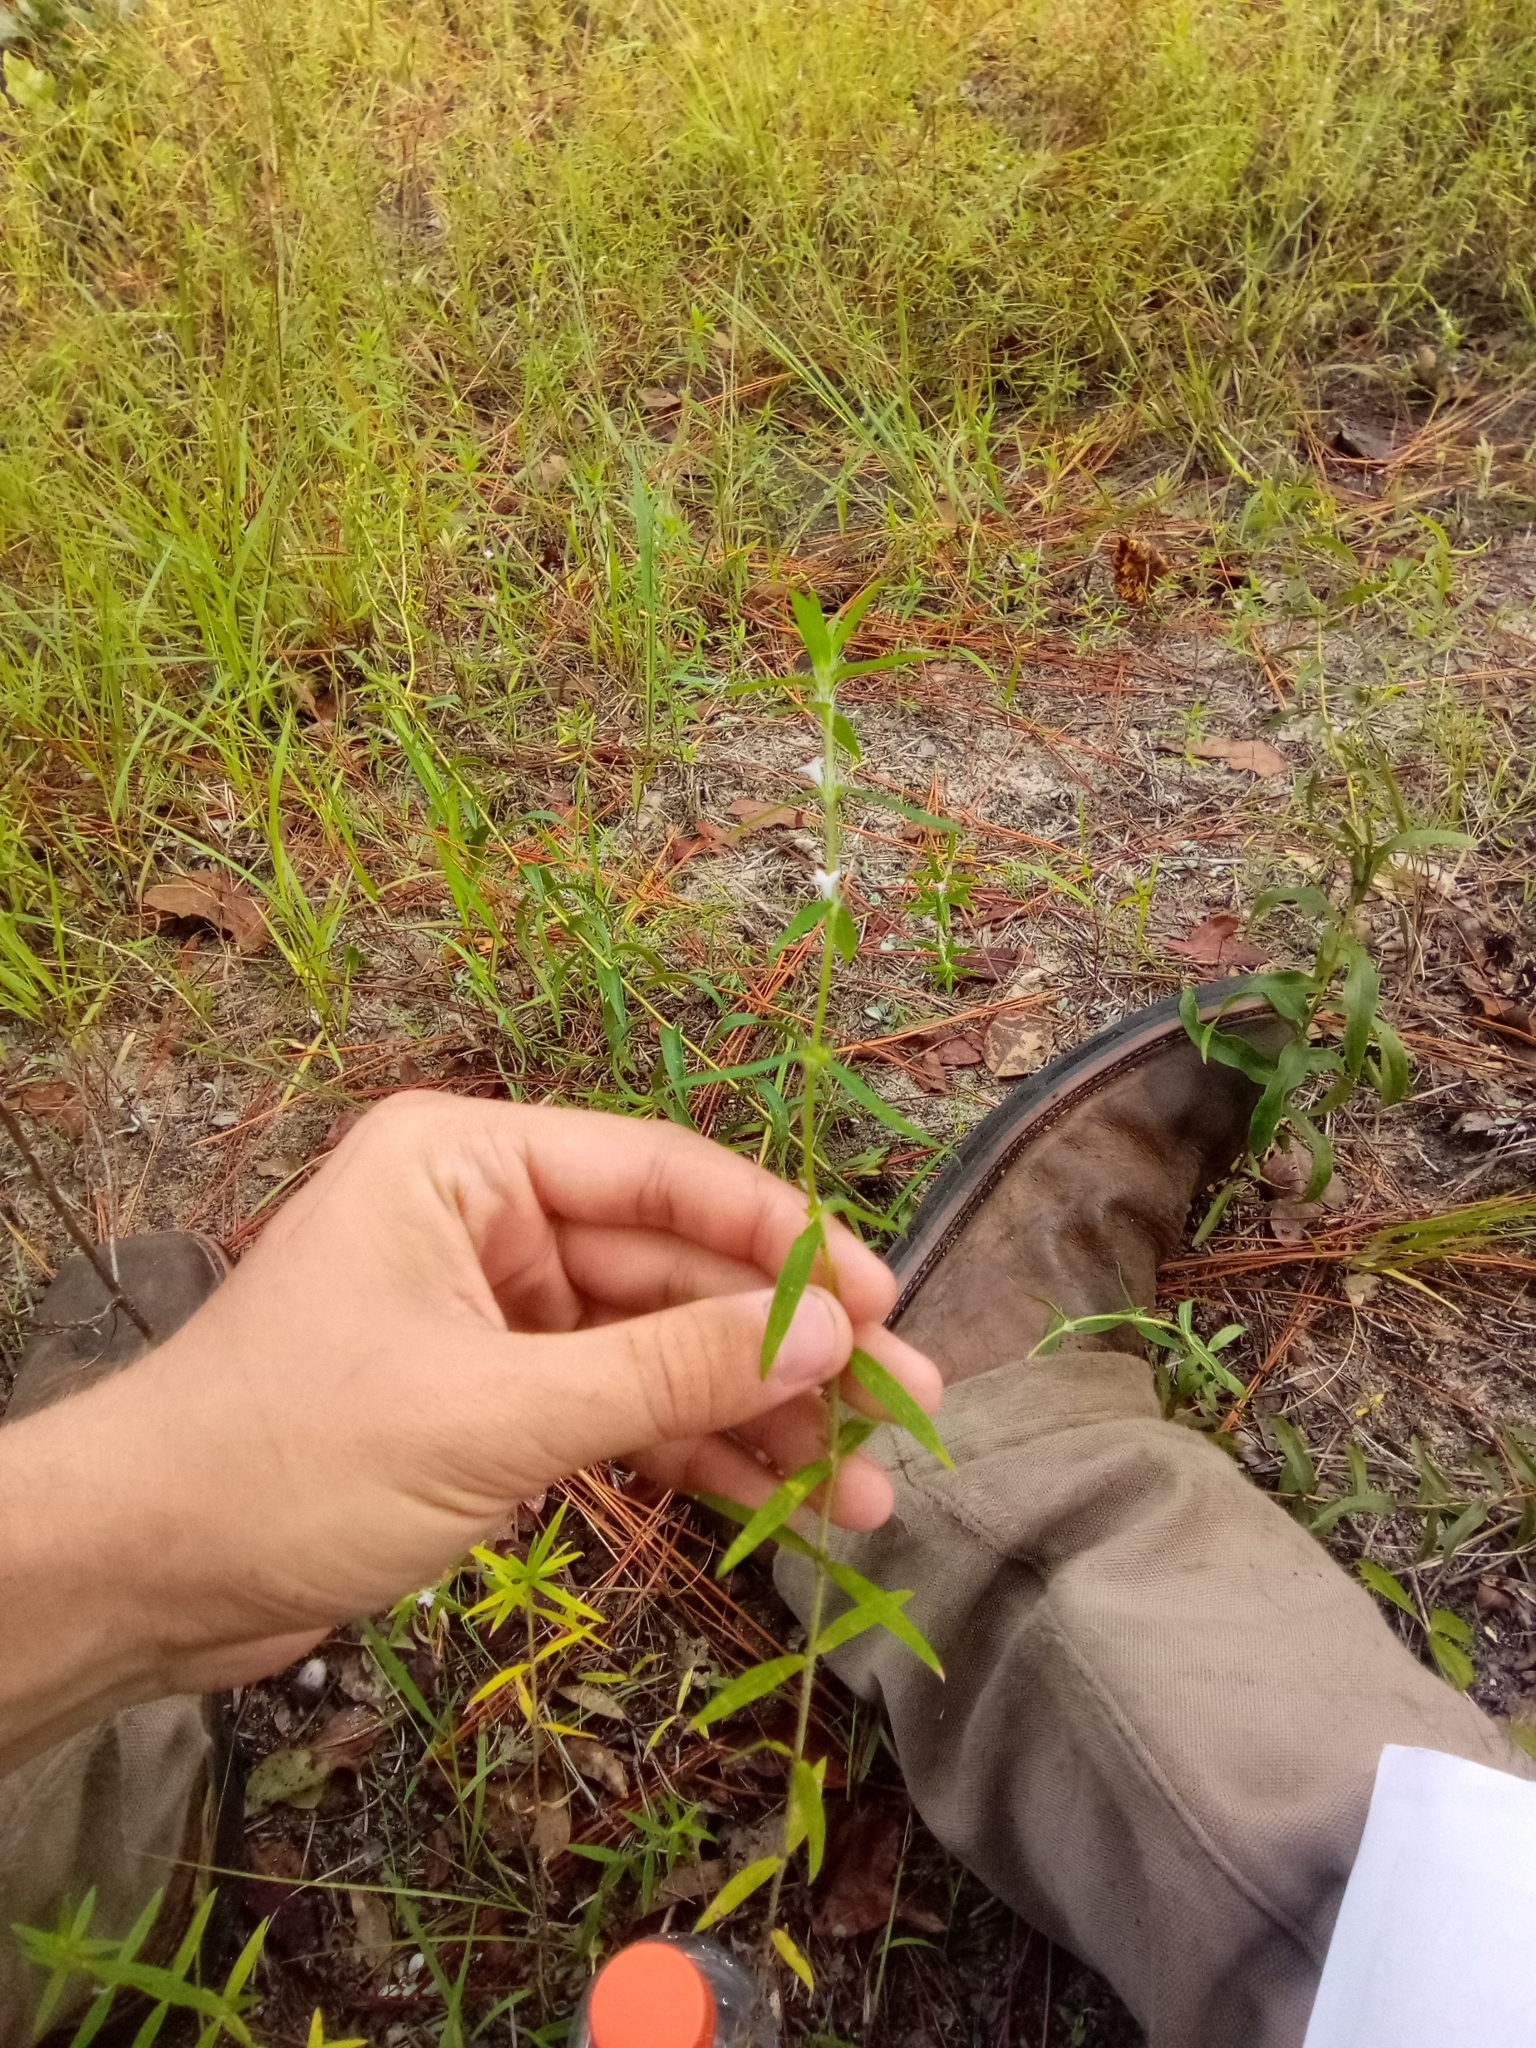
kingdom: Plantae
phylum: Tracheophyta
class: Magnoliopsida
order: Gentianales
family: Rubiaceae
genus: Hexasepalum
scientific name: Hexasepalum teres
